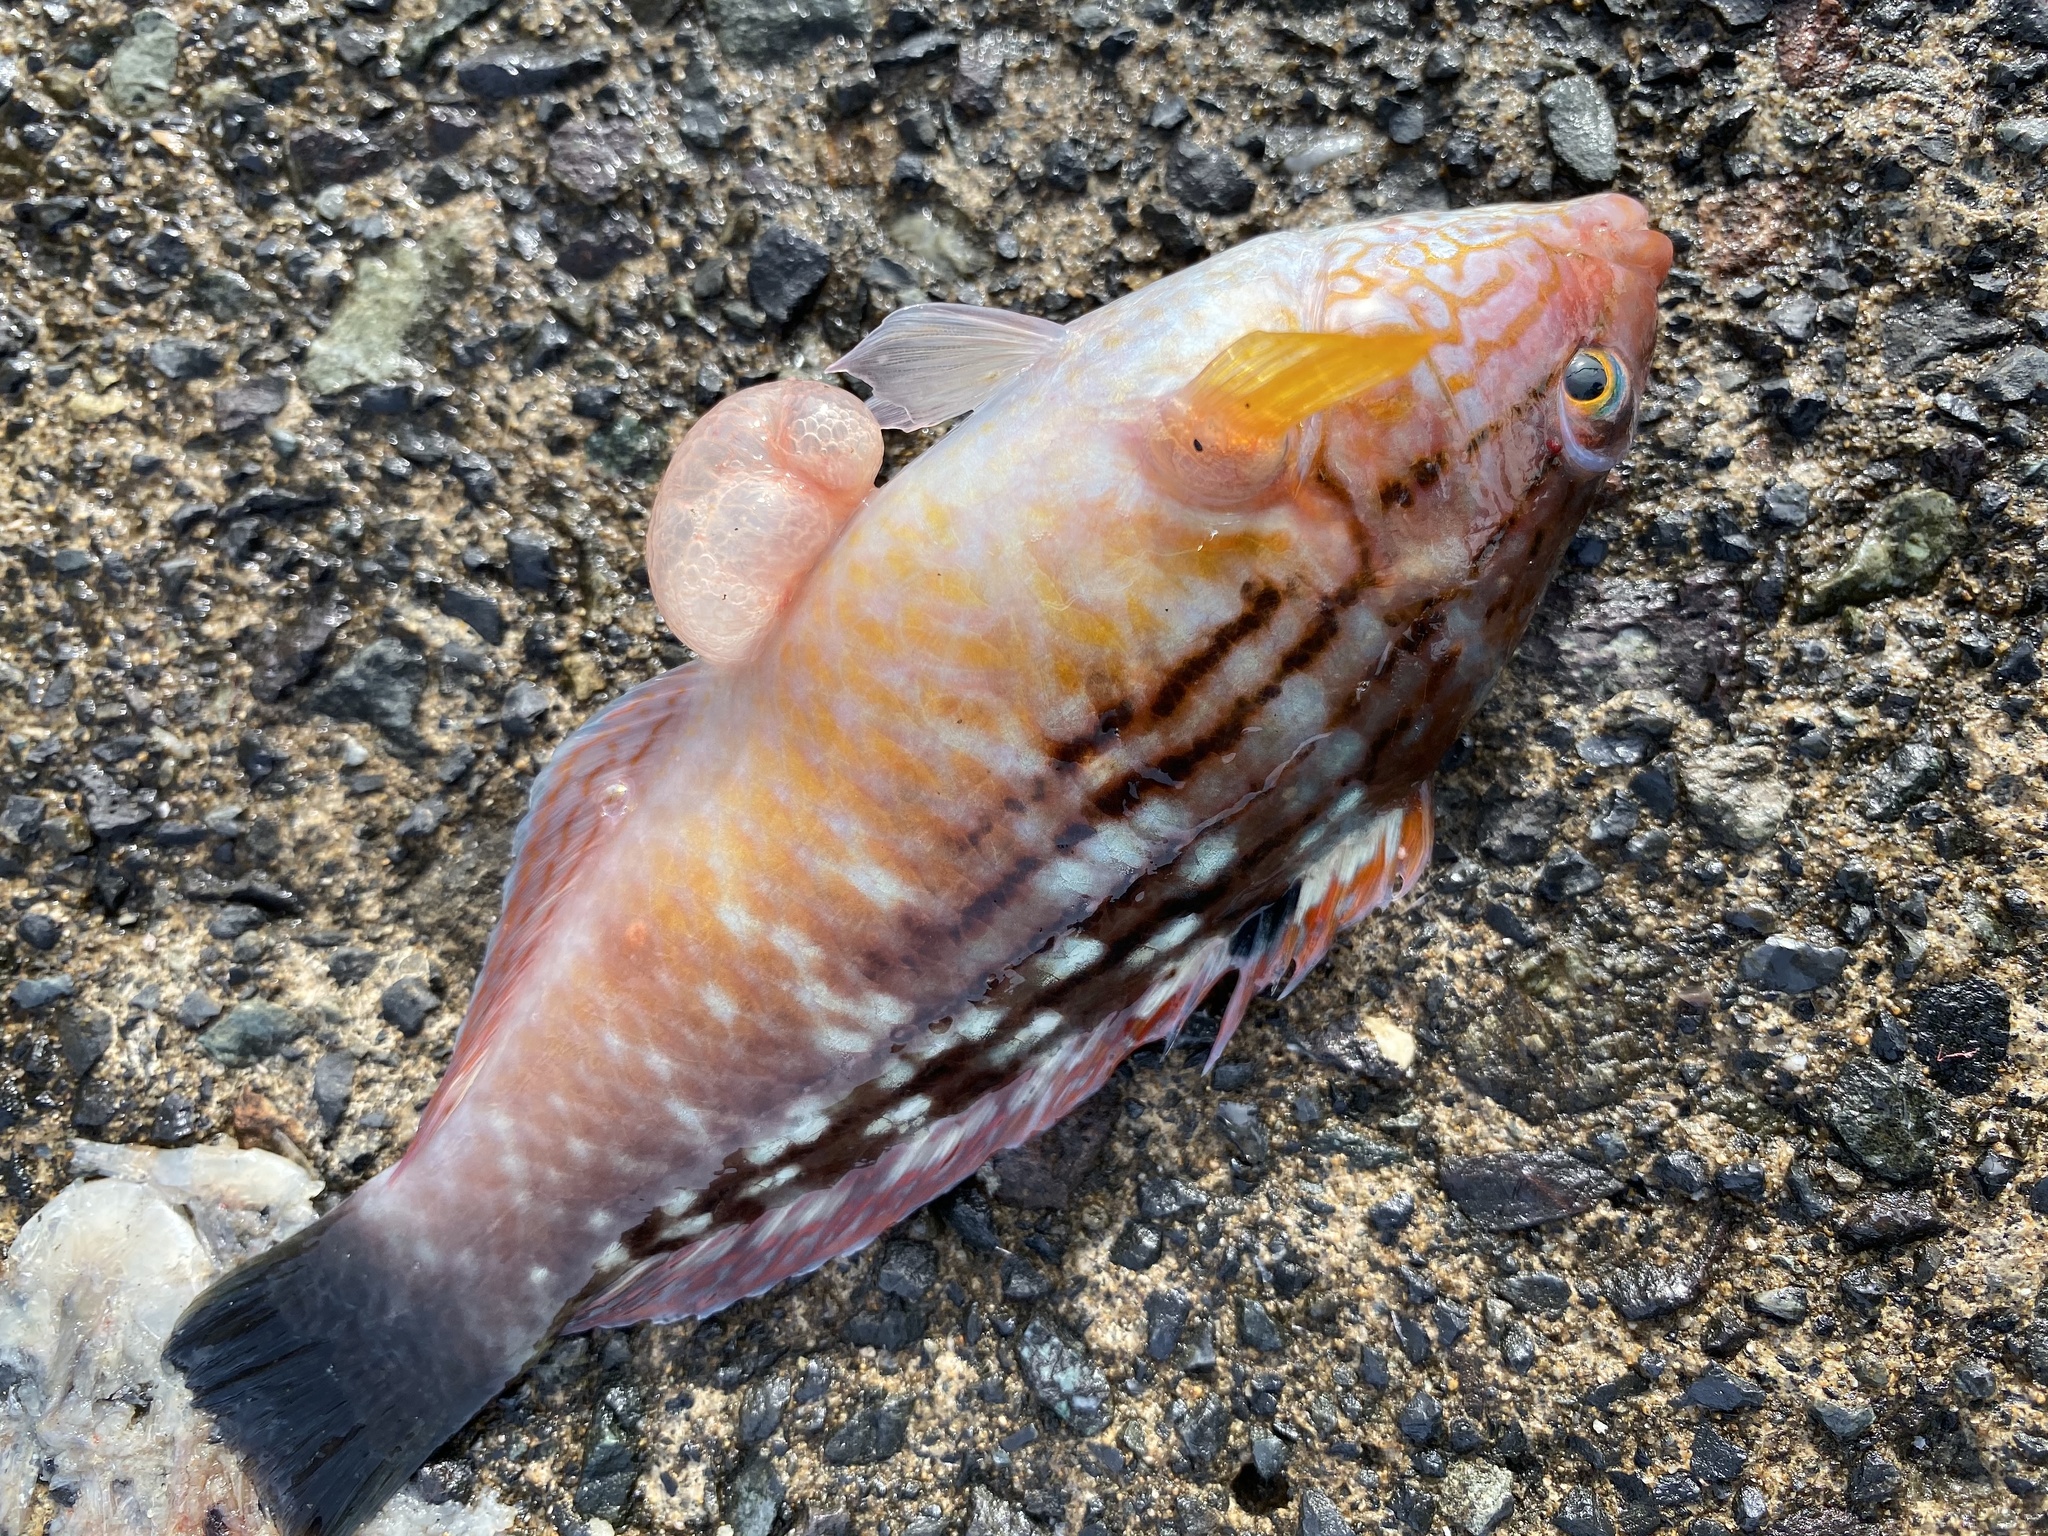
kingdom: Animalia
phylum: Chordata
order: Perciformes
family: Labridae
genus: Pseudolabrus
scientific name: Pseudolabrus sieboldi
